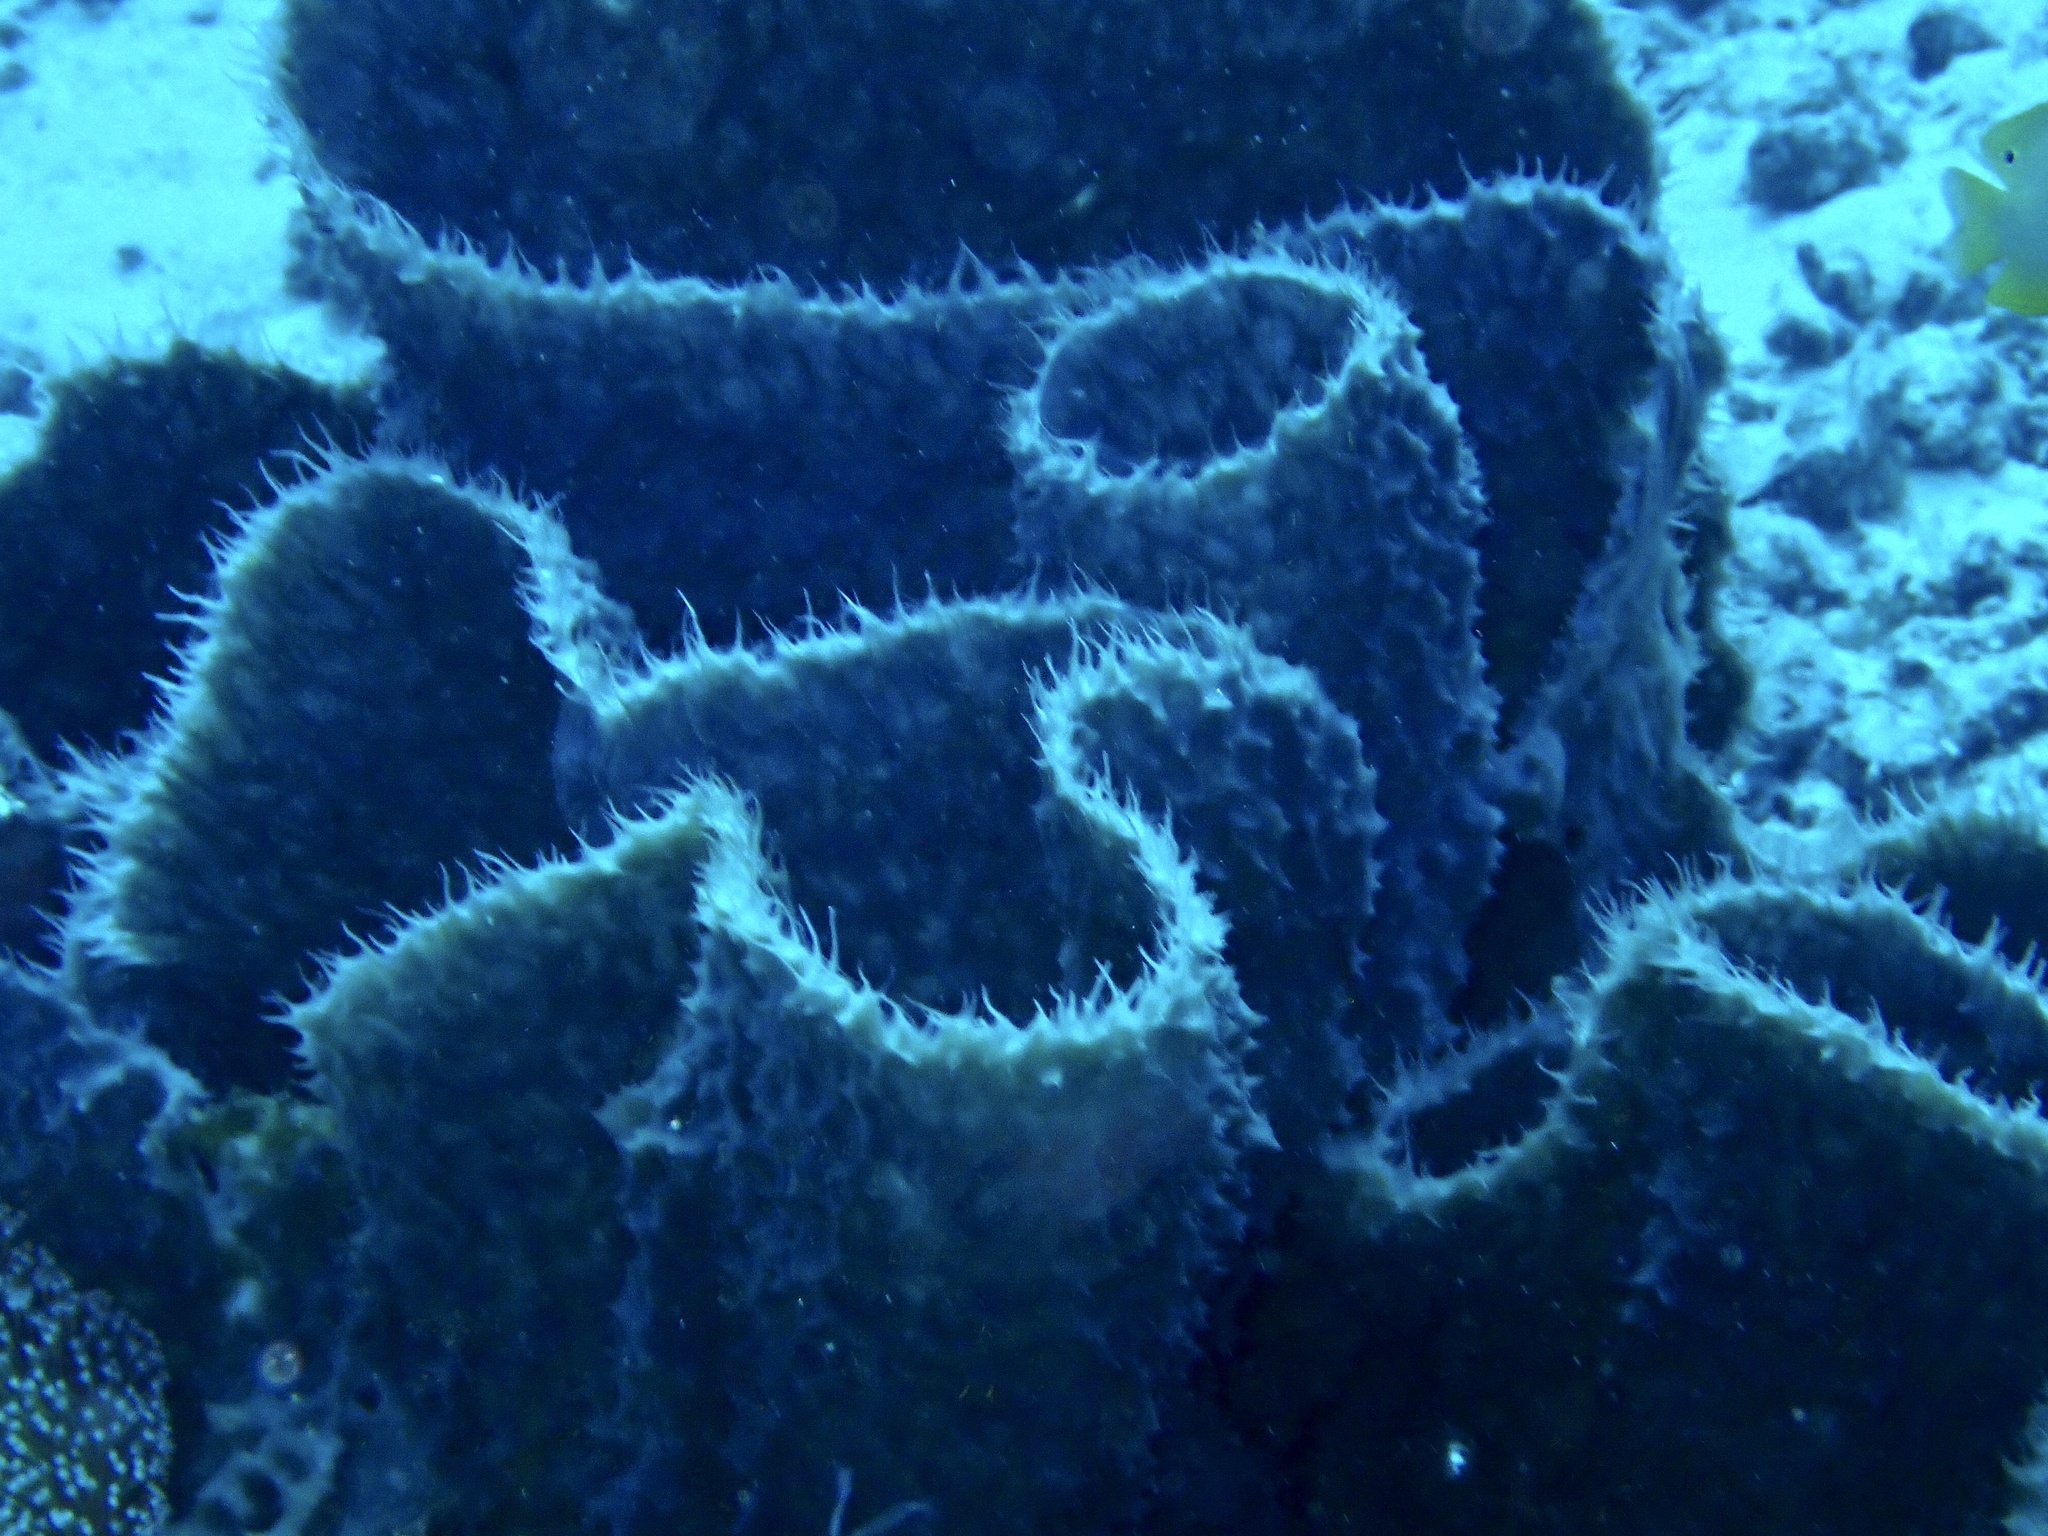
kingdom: Animalia
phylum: Porifera
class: Demospongiae
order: Haplosclerida
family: Callyspongiidae
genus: Callyspongia
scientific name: Callyspongia aerizusa
